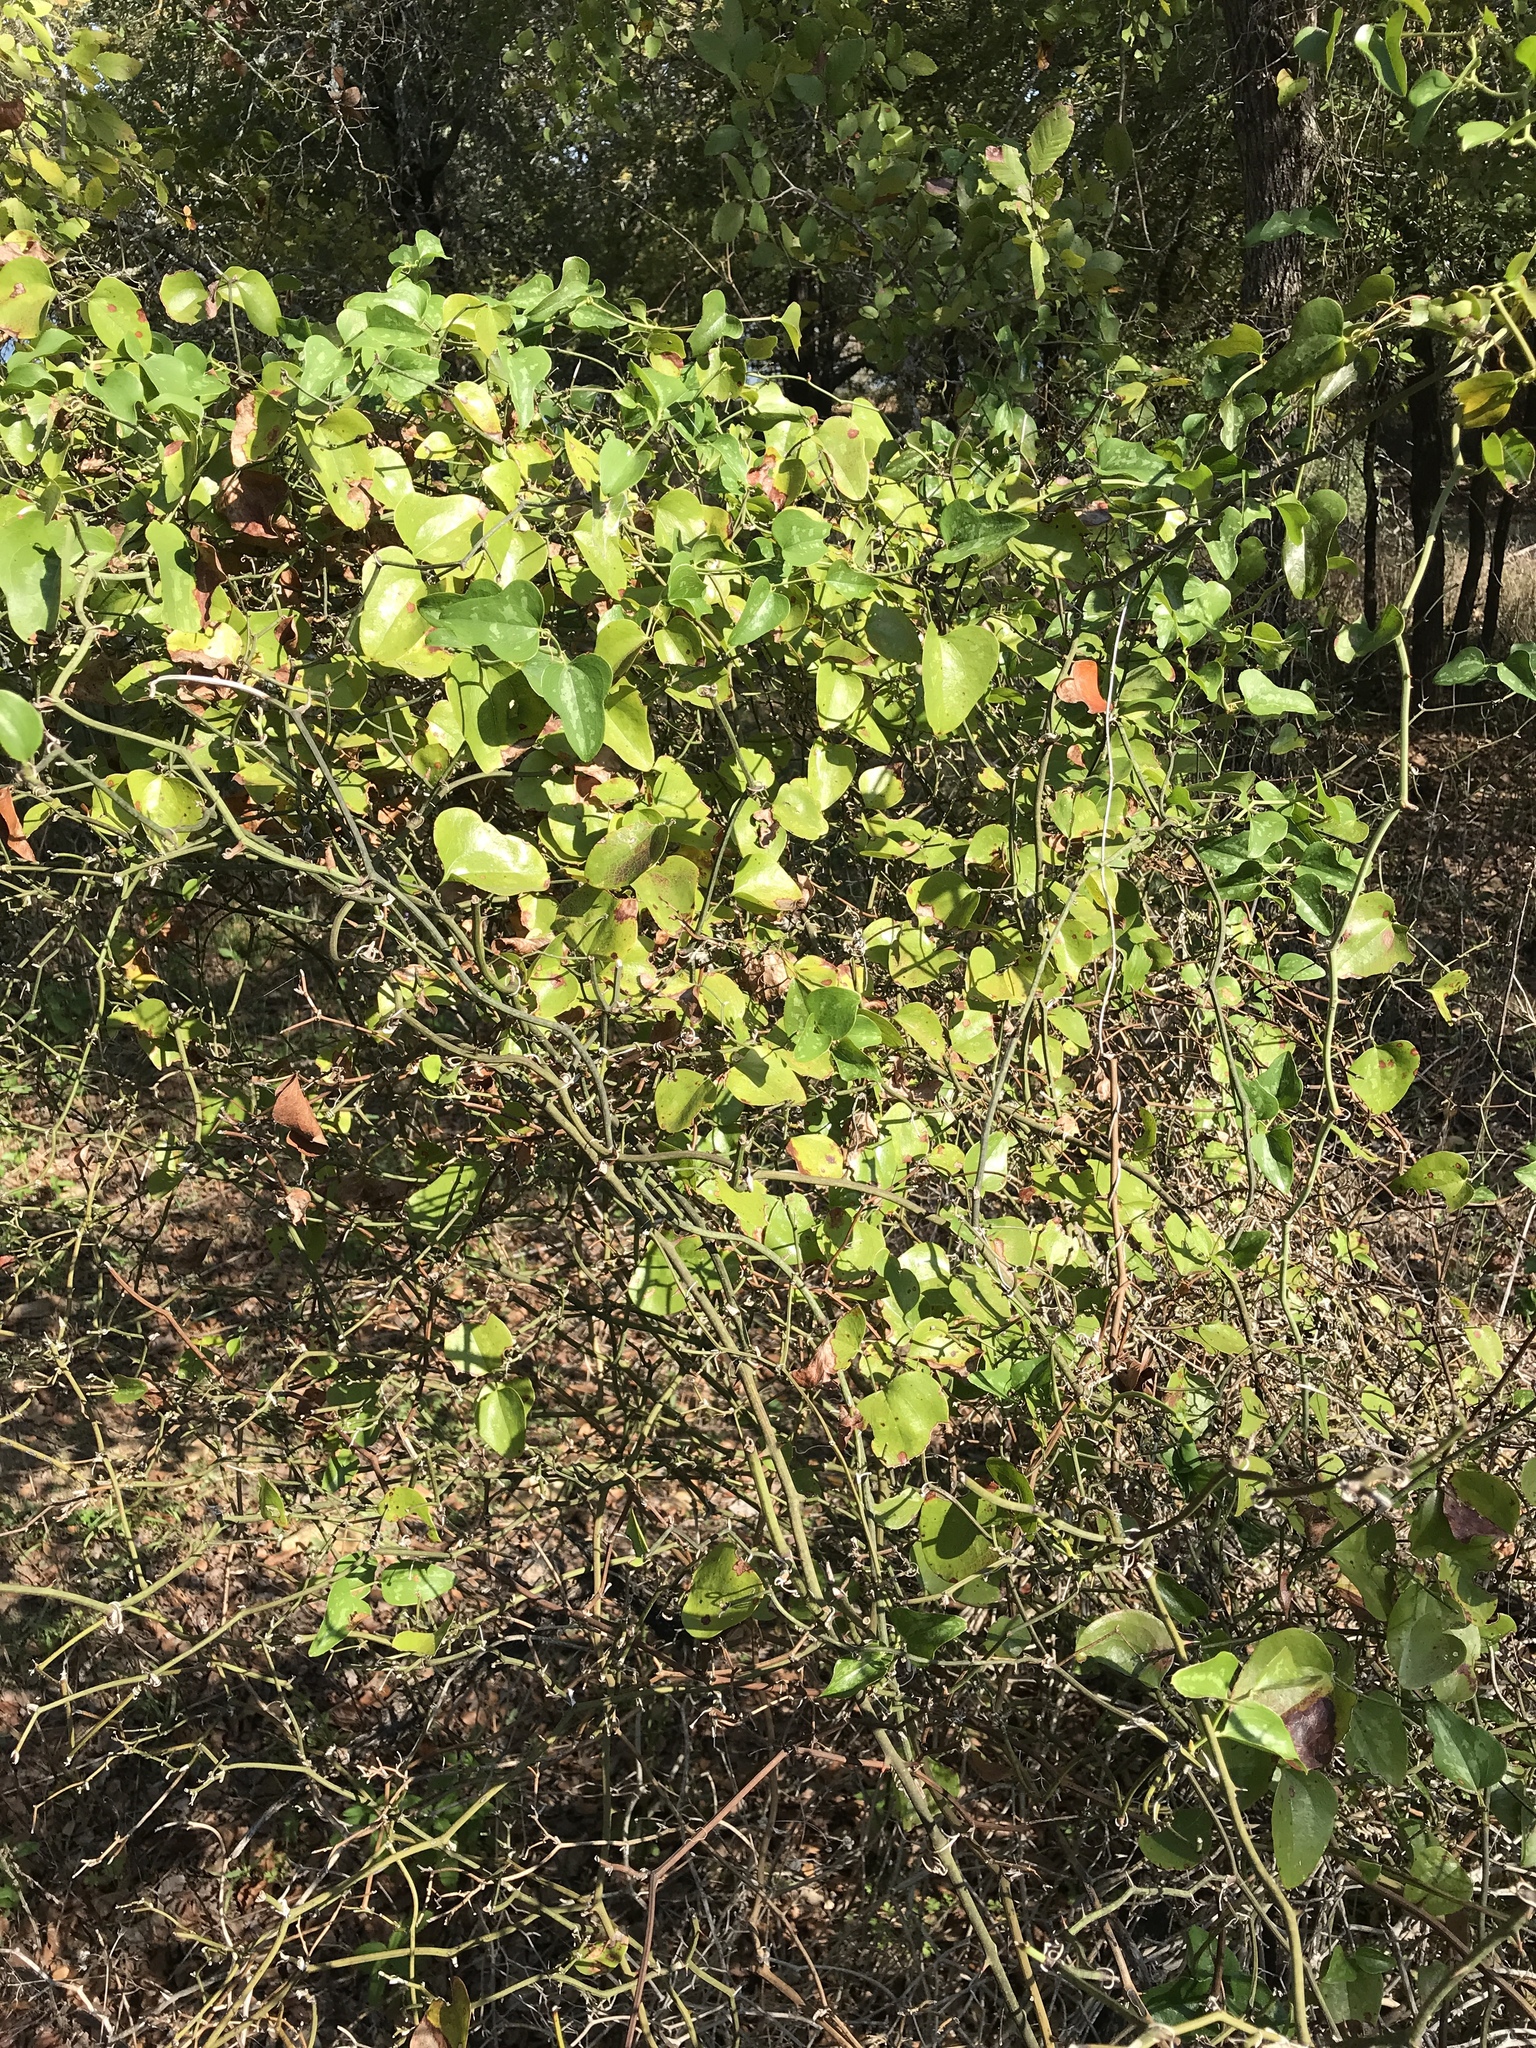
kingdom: Plantae
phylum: Tracheophyta
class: Liliopsida
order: Liliales
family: Smilacaceae
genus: Smilax
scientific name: Smilax bona-nox
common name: Catbrier
